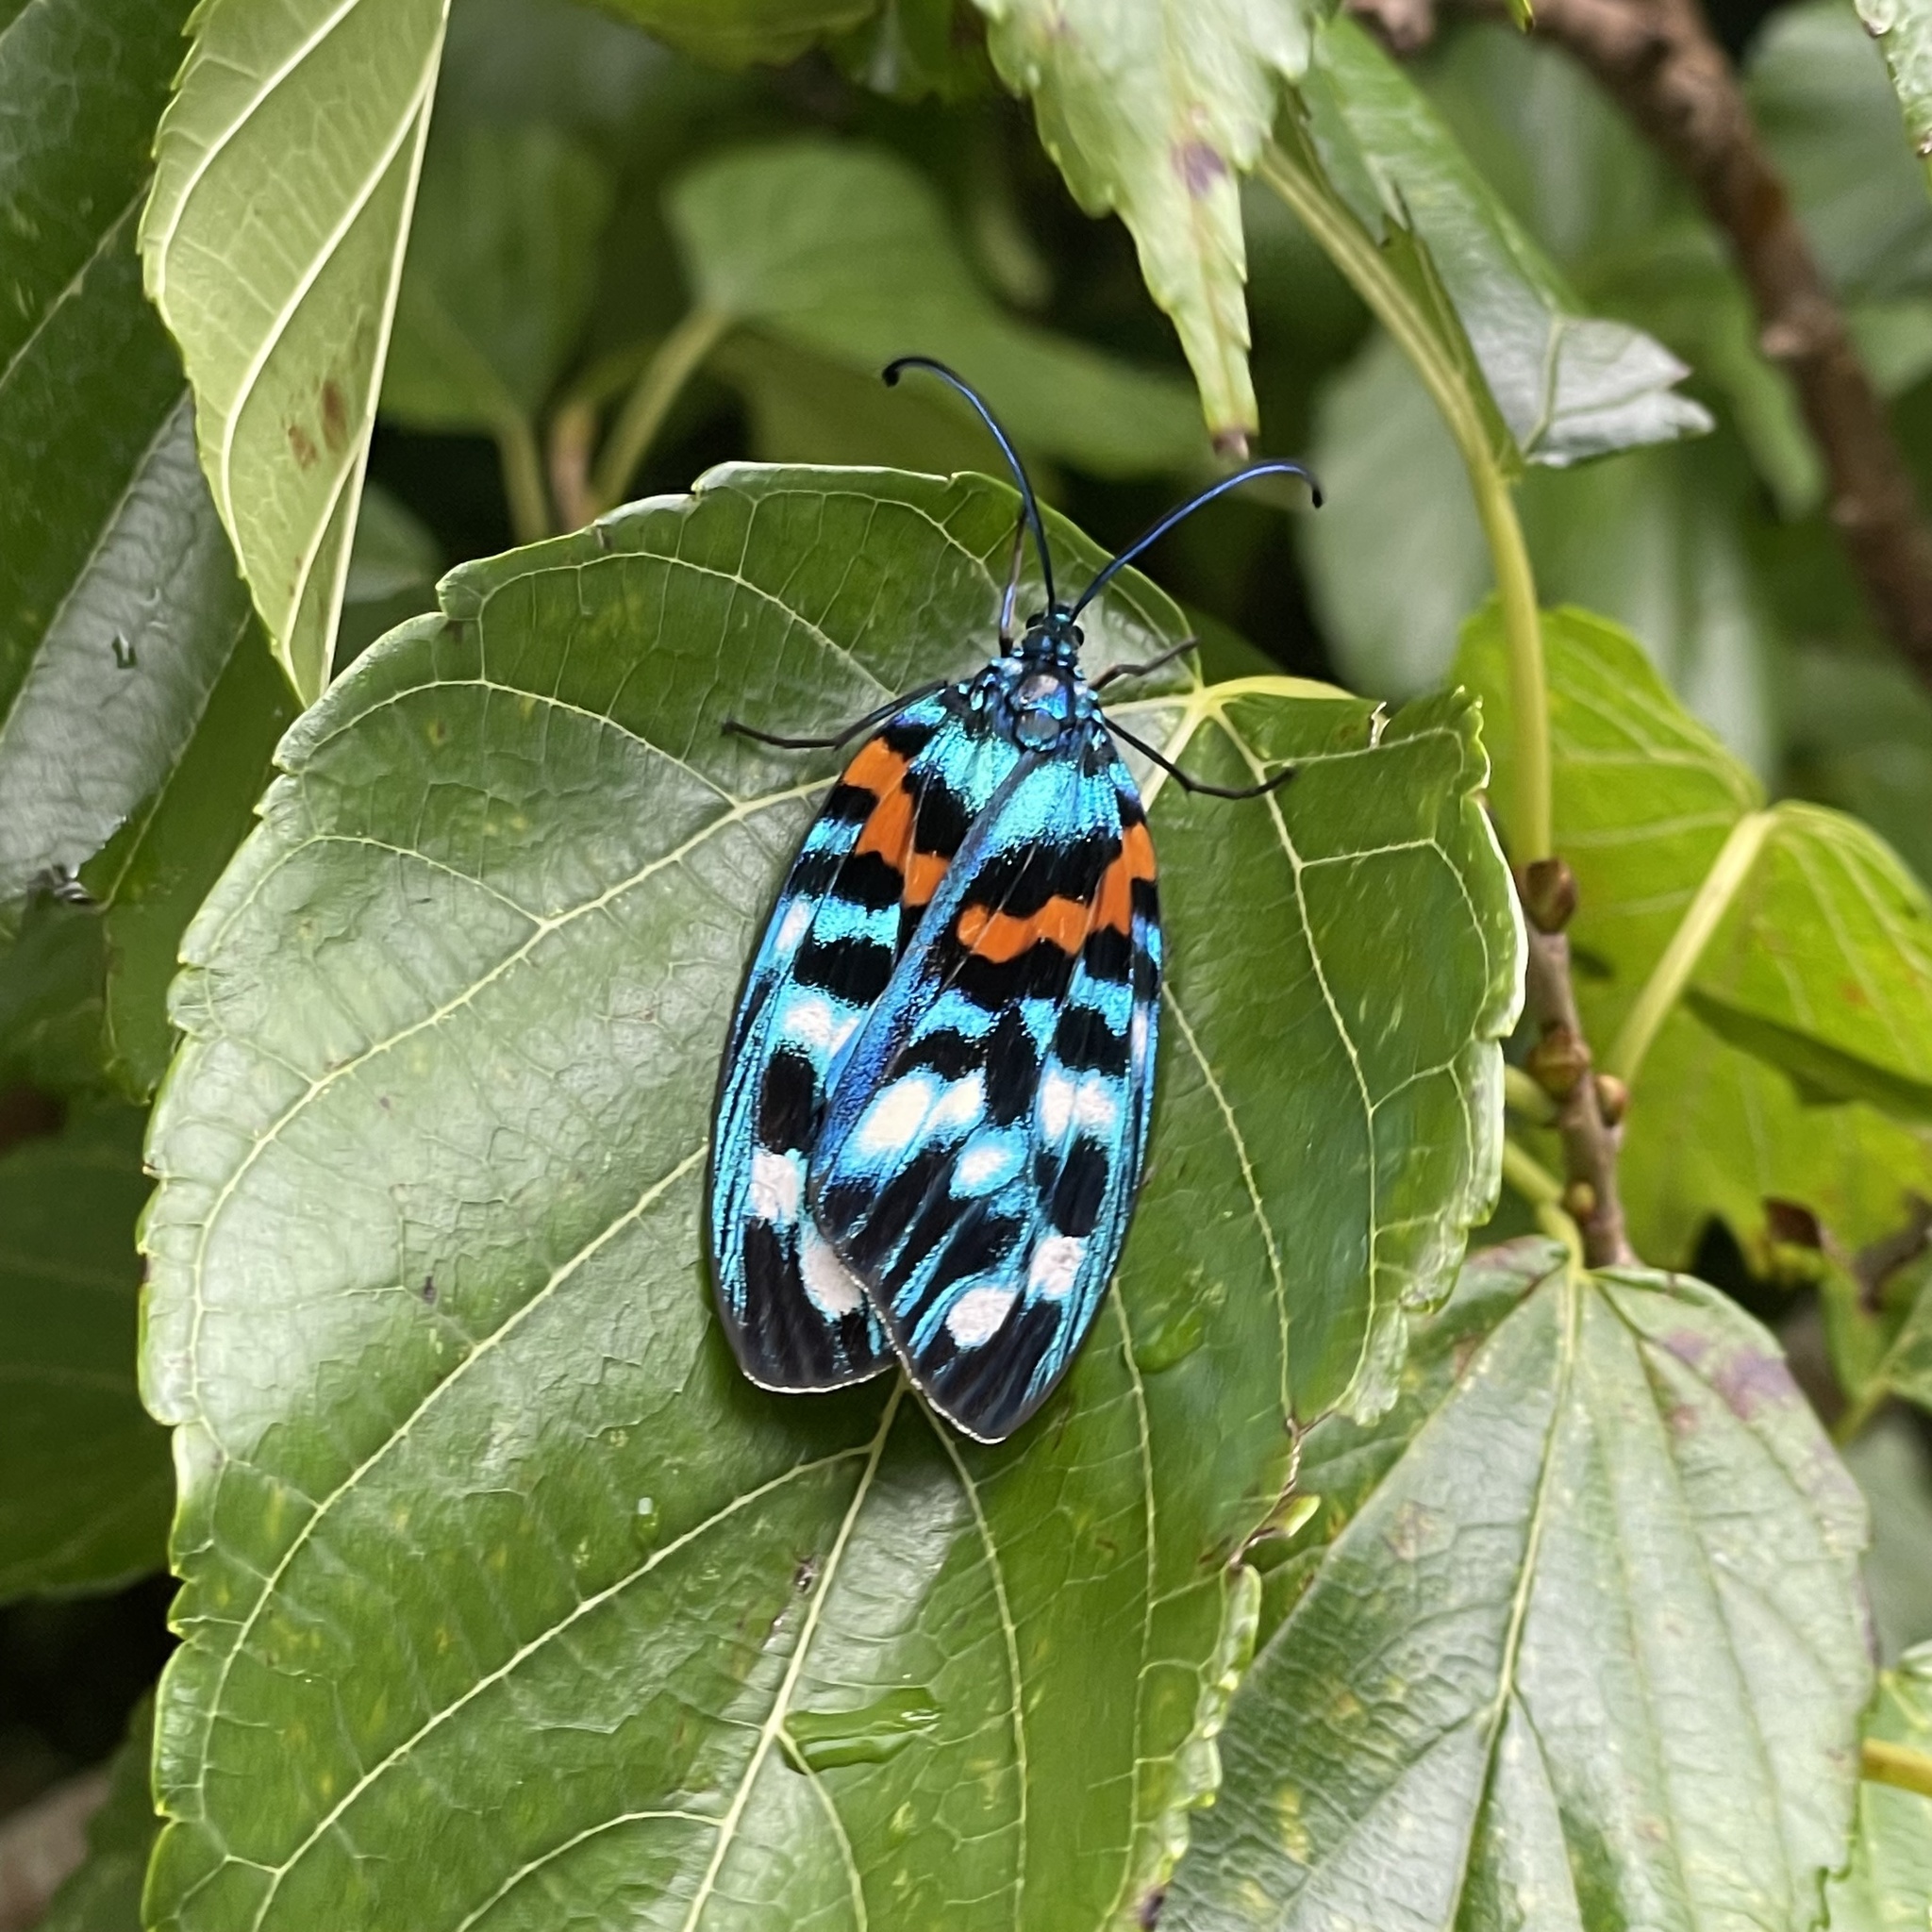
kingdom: Animalia
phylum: Arthropoda
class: Insecta
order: Lepidoptera
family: Zygaenidae
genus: Erasmia
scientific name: Erasmia sangaica
